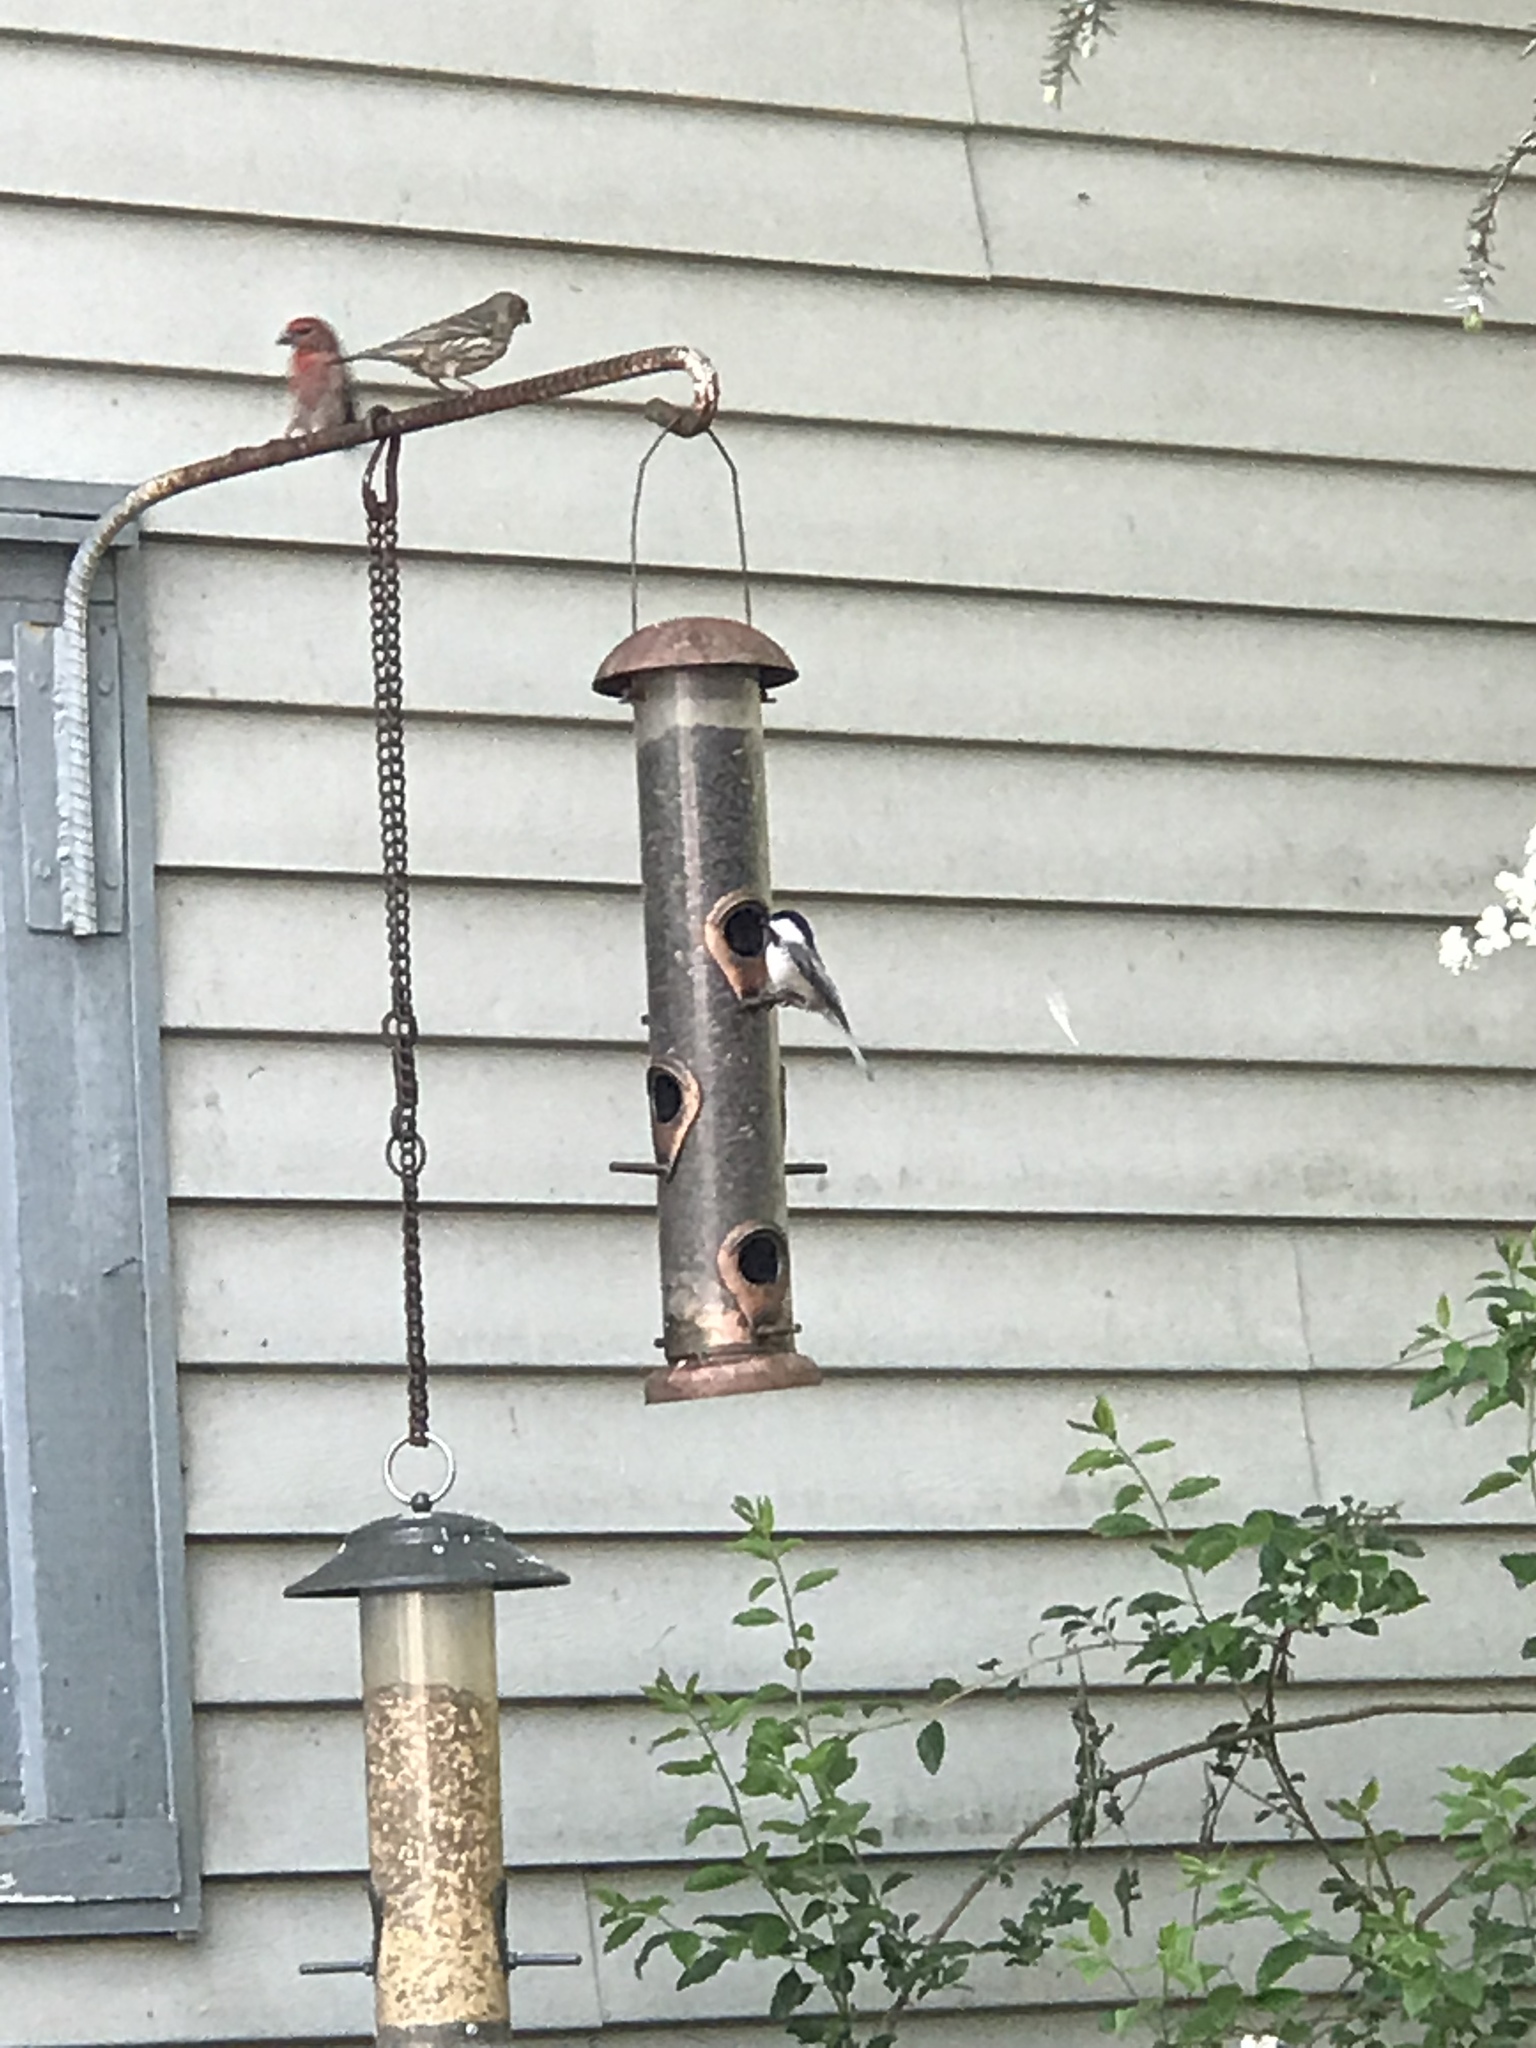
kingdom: Animalia
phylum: Chordata
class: Aves
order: Passeriformes
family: Paridae
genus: Poecile
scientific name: Poecile carolinensis
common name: Carolina chickadee
